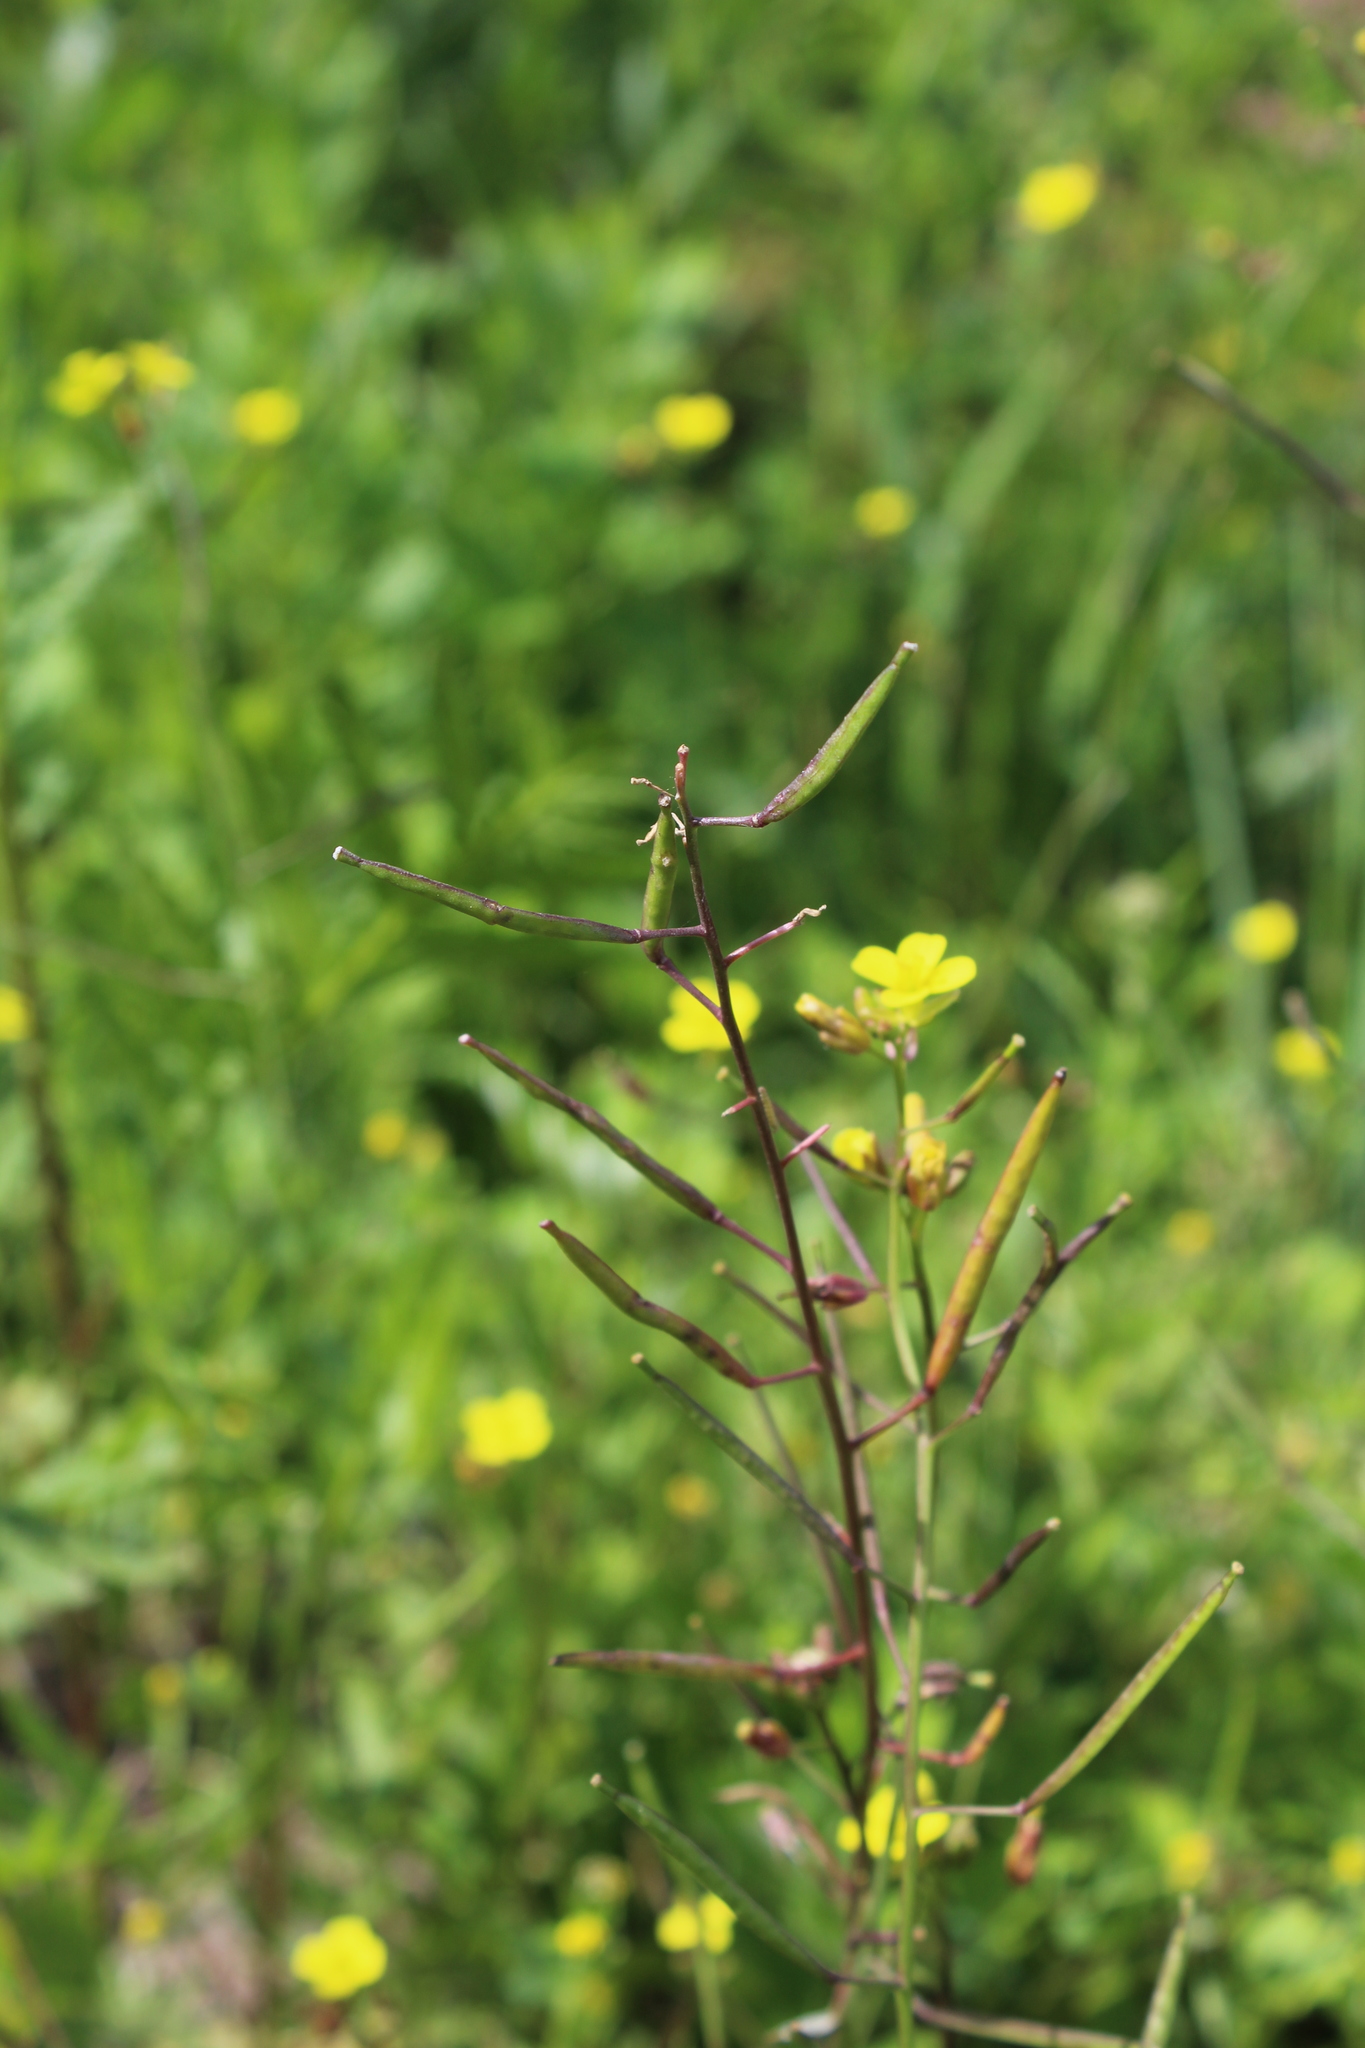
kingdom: Plantae
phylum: Tracheophyta
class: Magnoliopsida
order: Brassicales
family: Brassicaceae
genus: Diplotaxis
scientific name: Diplotaxis muralis
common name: Annual wall-rocket
